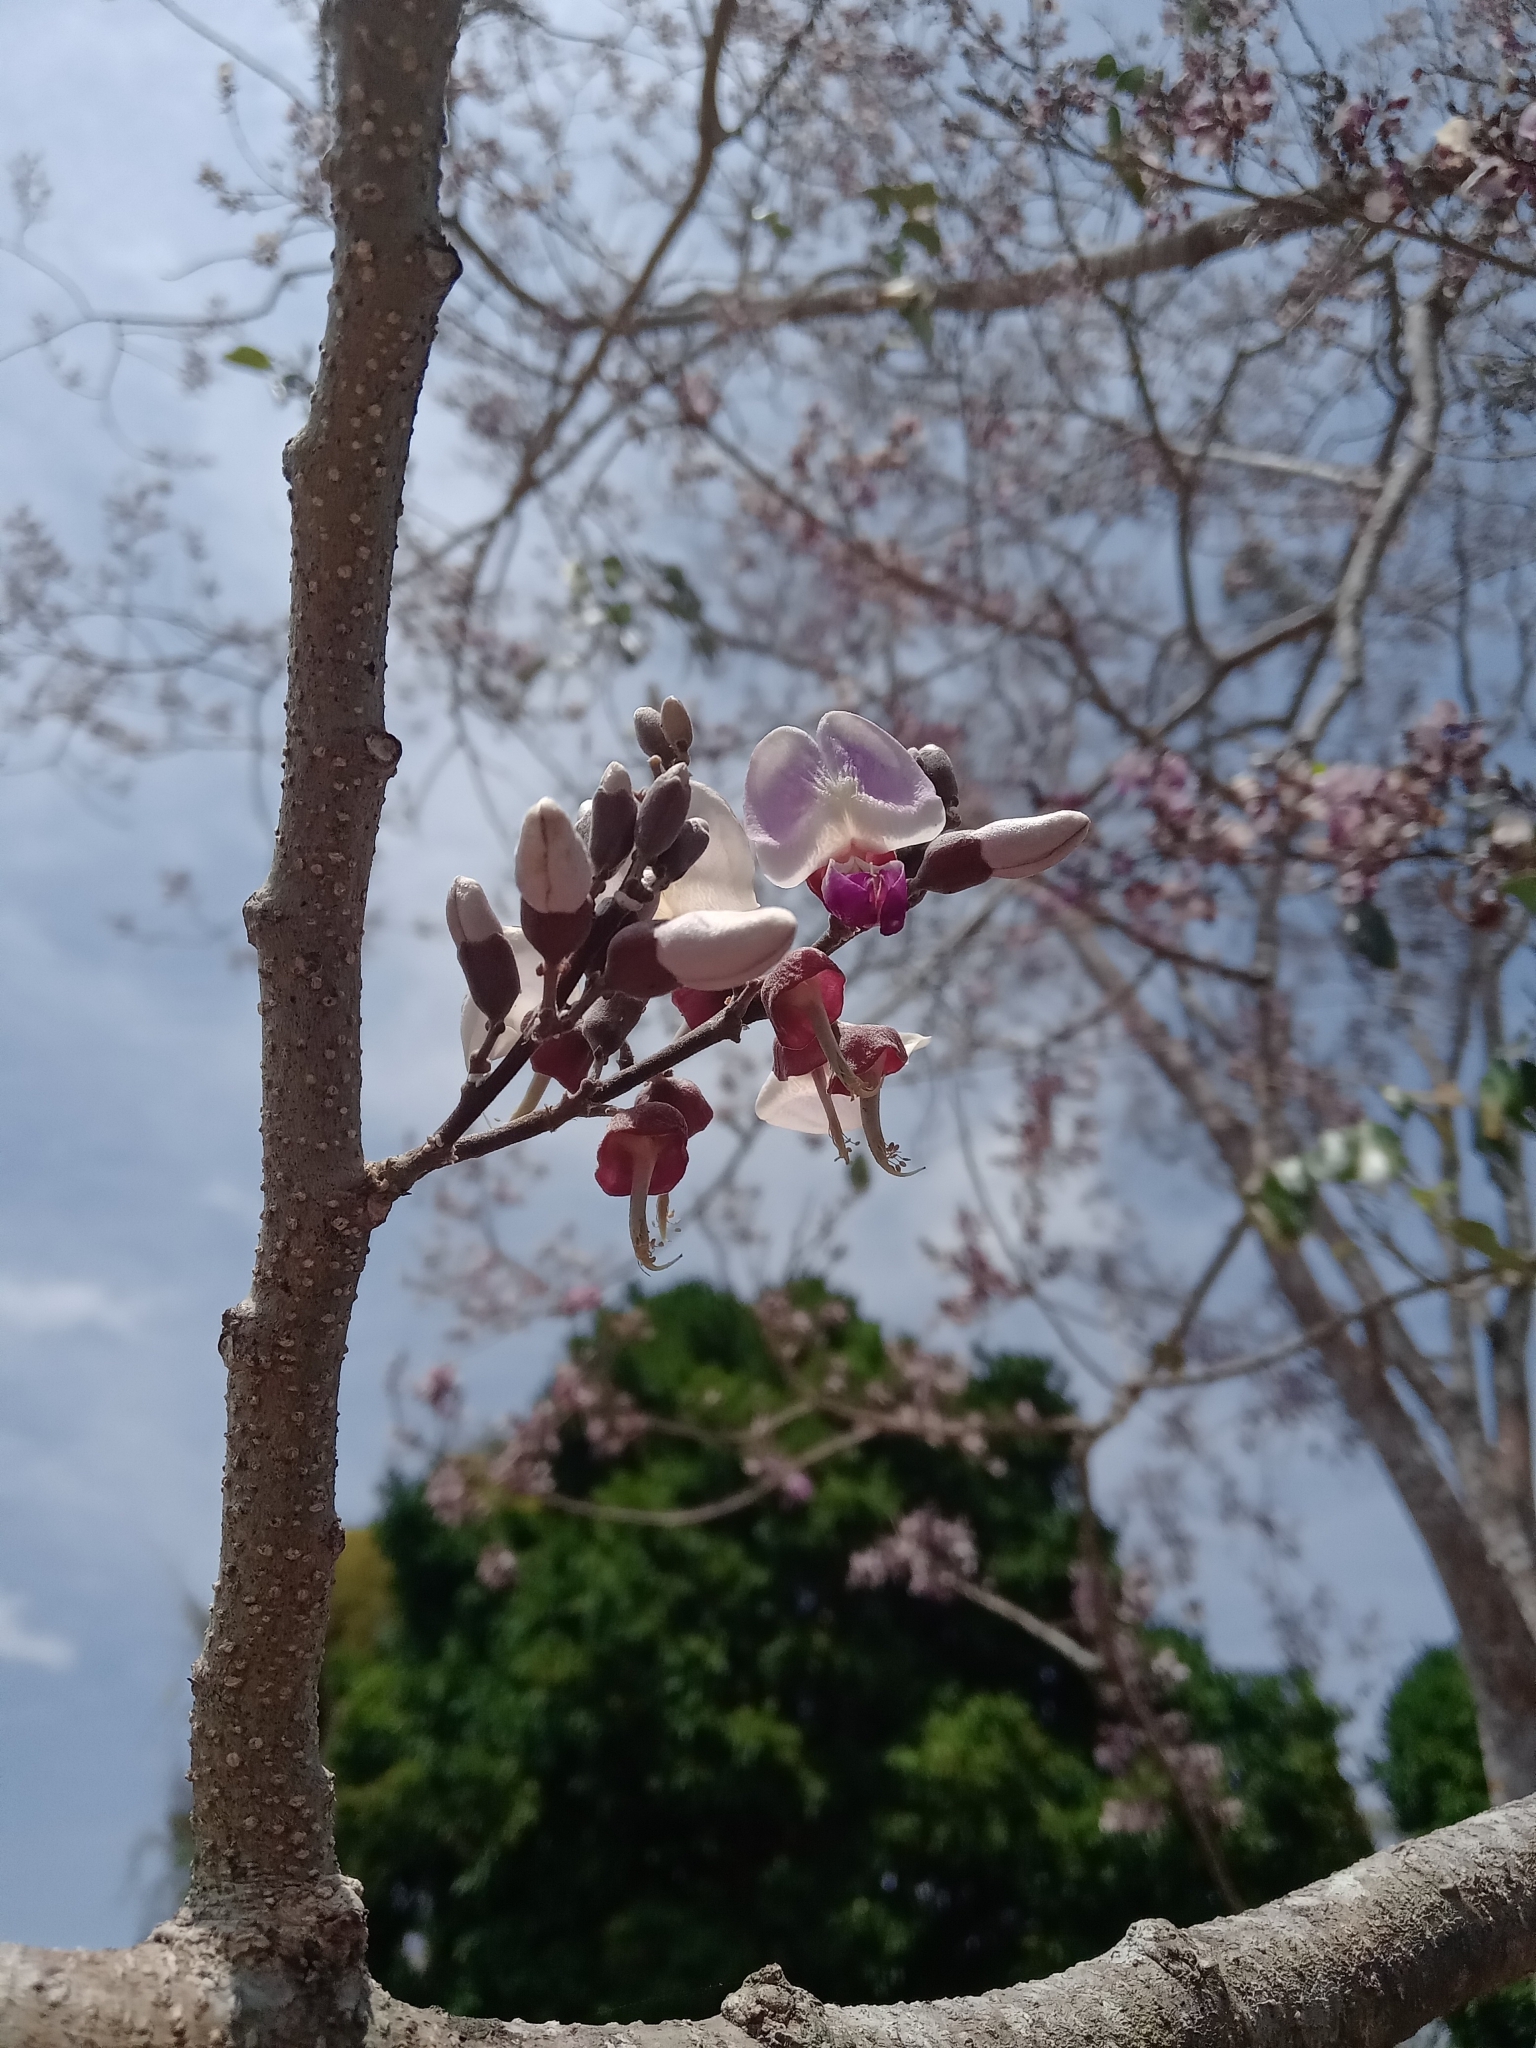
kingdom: Plantae
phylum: Tracheophyta
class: Magnoliopsida
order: Fabales
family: Fabaceae
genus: Gliricidia
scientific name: Gliricidia sepium
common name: Quickstick
